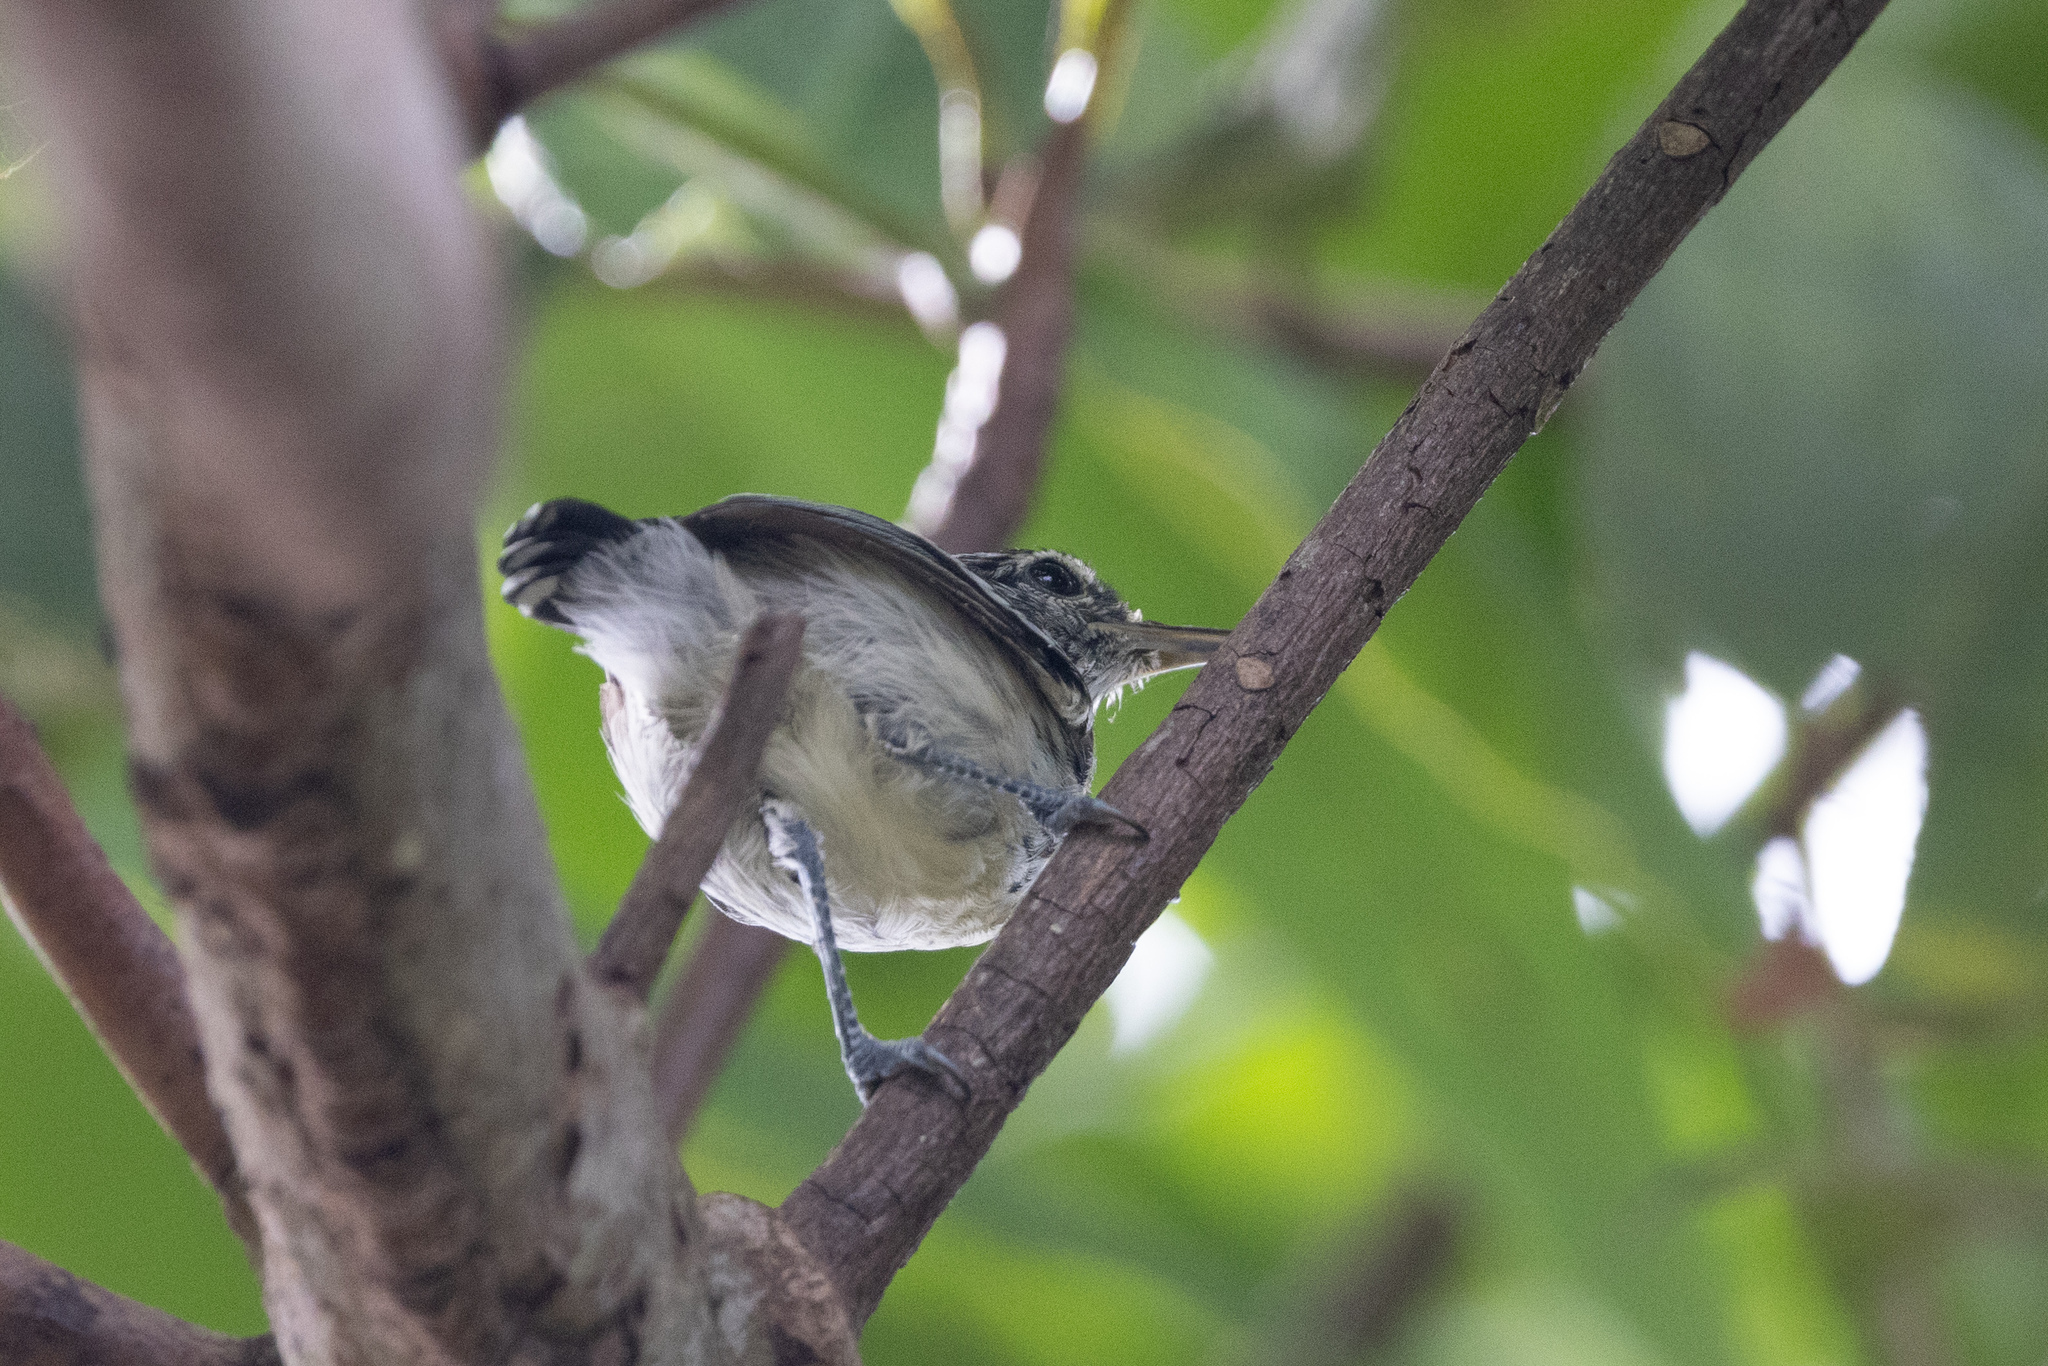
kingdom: Animalia
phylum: Chordata
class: Aves
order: Passeriformes
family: Thamnophilidae
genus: Myrmotherula
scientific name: Myrmotherula pacifica
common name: Pacific antwren
